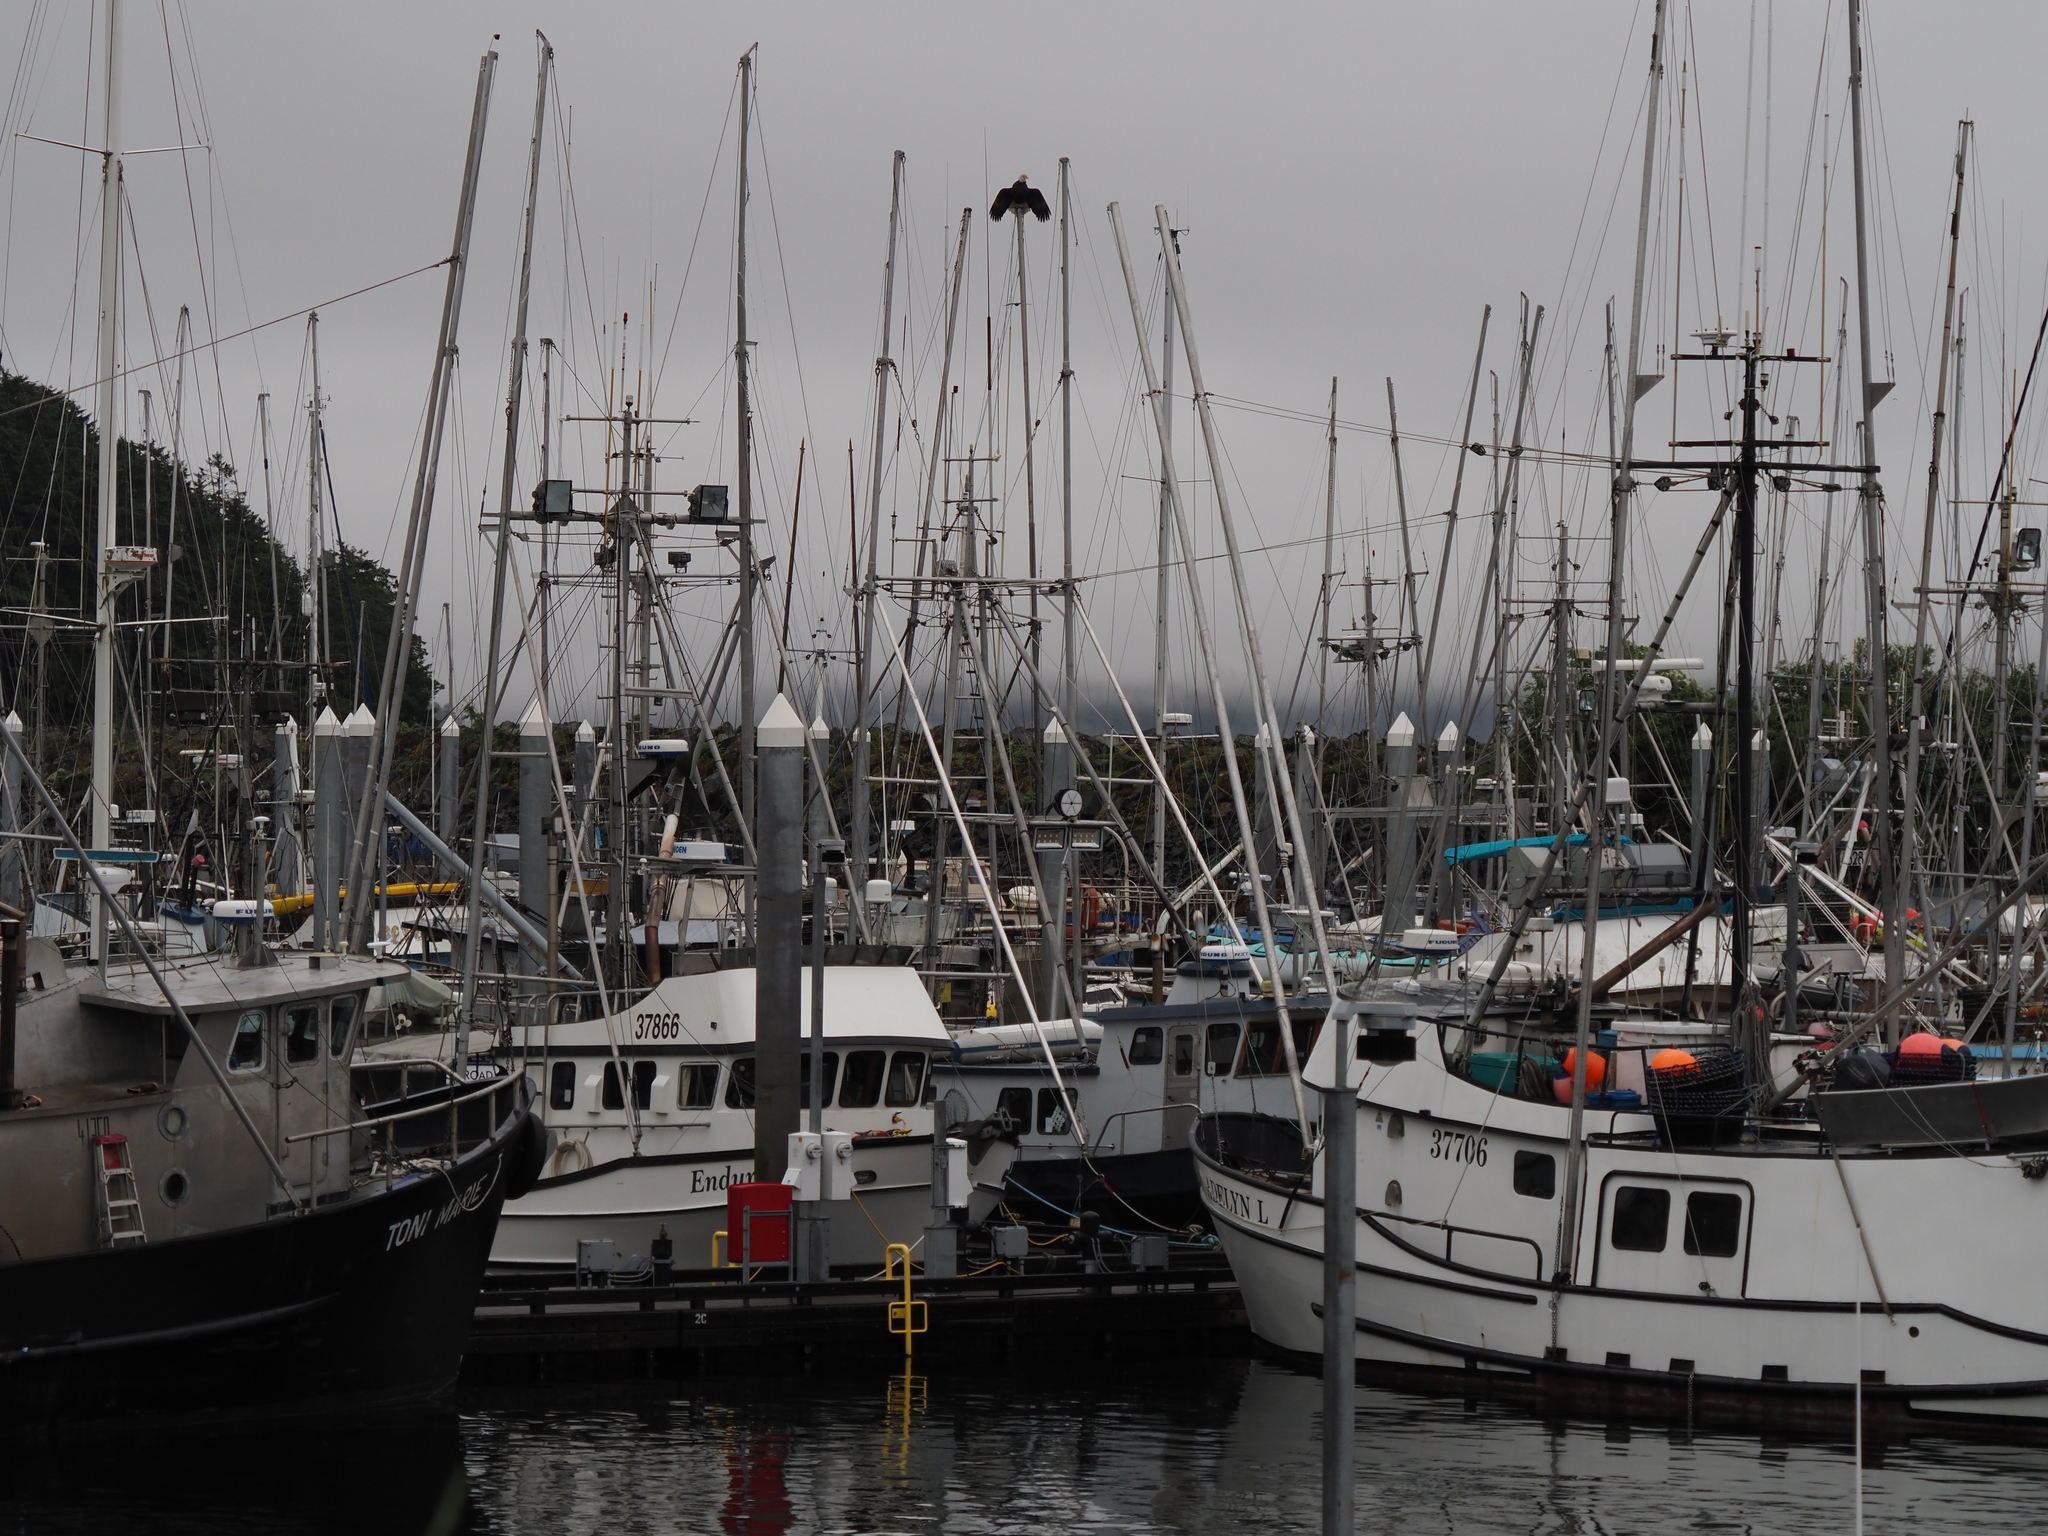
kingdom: Animalia
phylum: Chordata
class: Aves
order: Accipitriformes
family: Accipitridae
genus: Haliaeetus
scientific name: Haliaeetus leucocephalus
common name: Bald eagle
